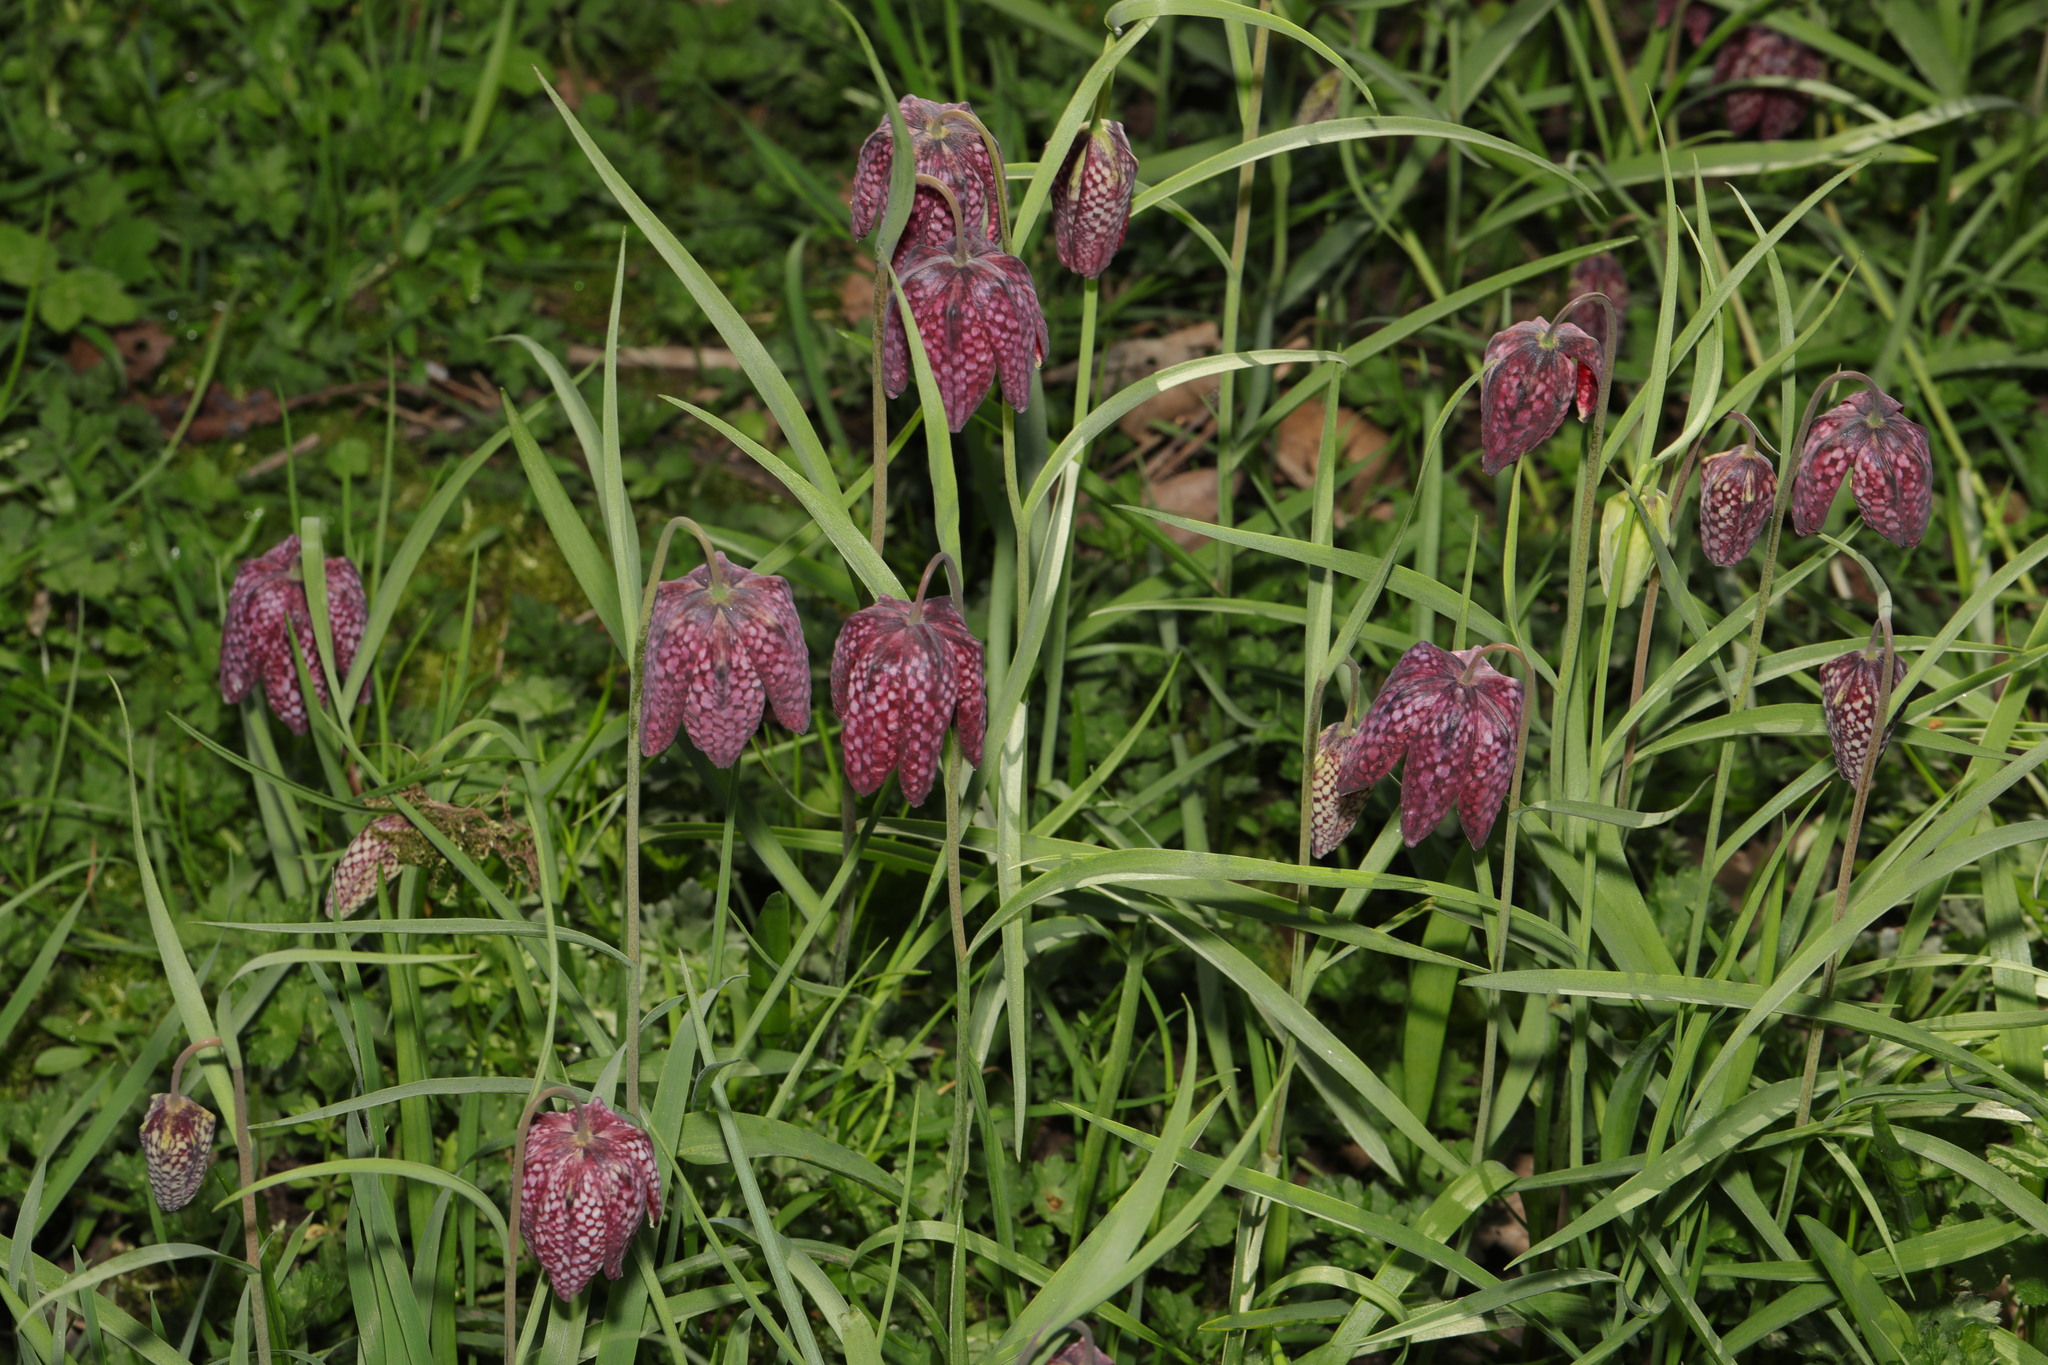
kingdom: Plantae
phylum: Tracheophyta
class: Liliopsida
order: Liliales
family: Liliaceae
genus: Fritillaria
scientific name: Fritillaria meleagris
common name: Fritillary
